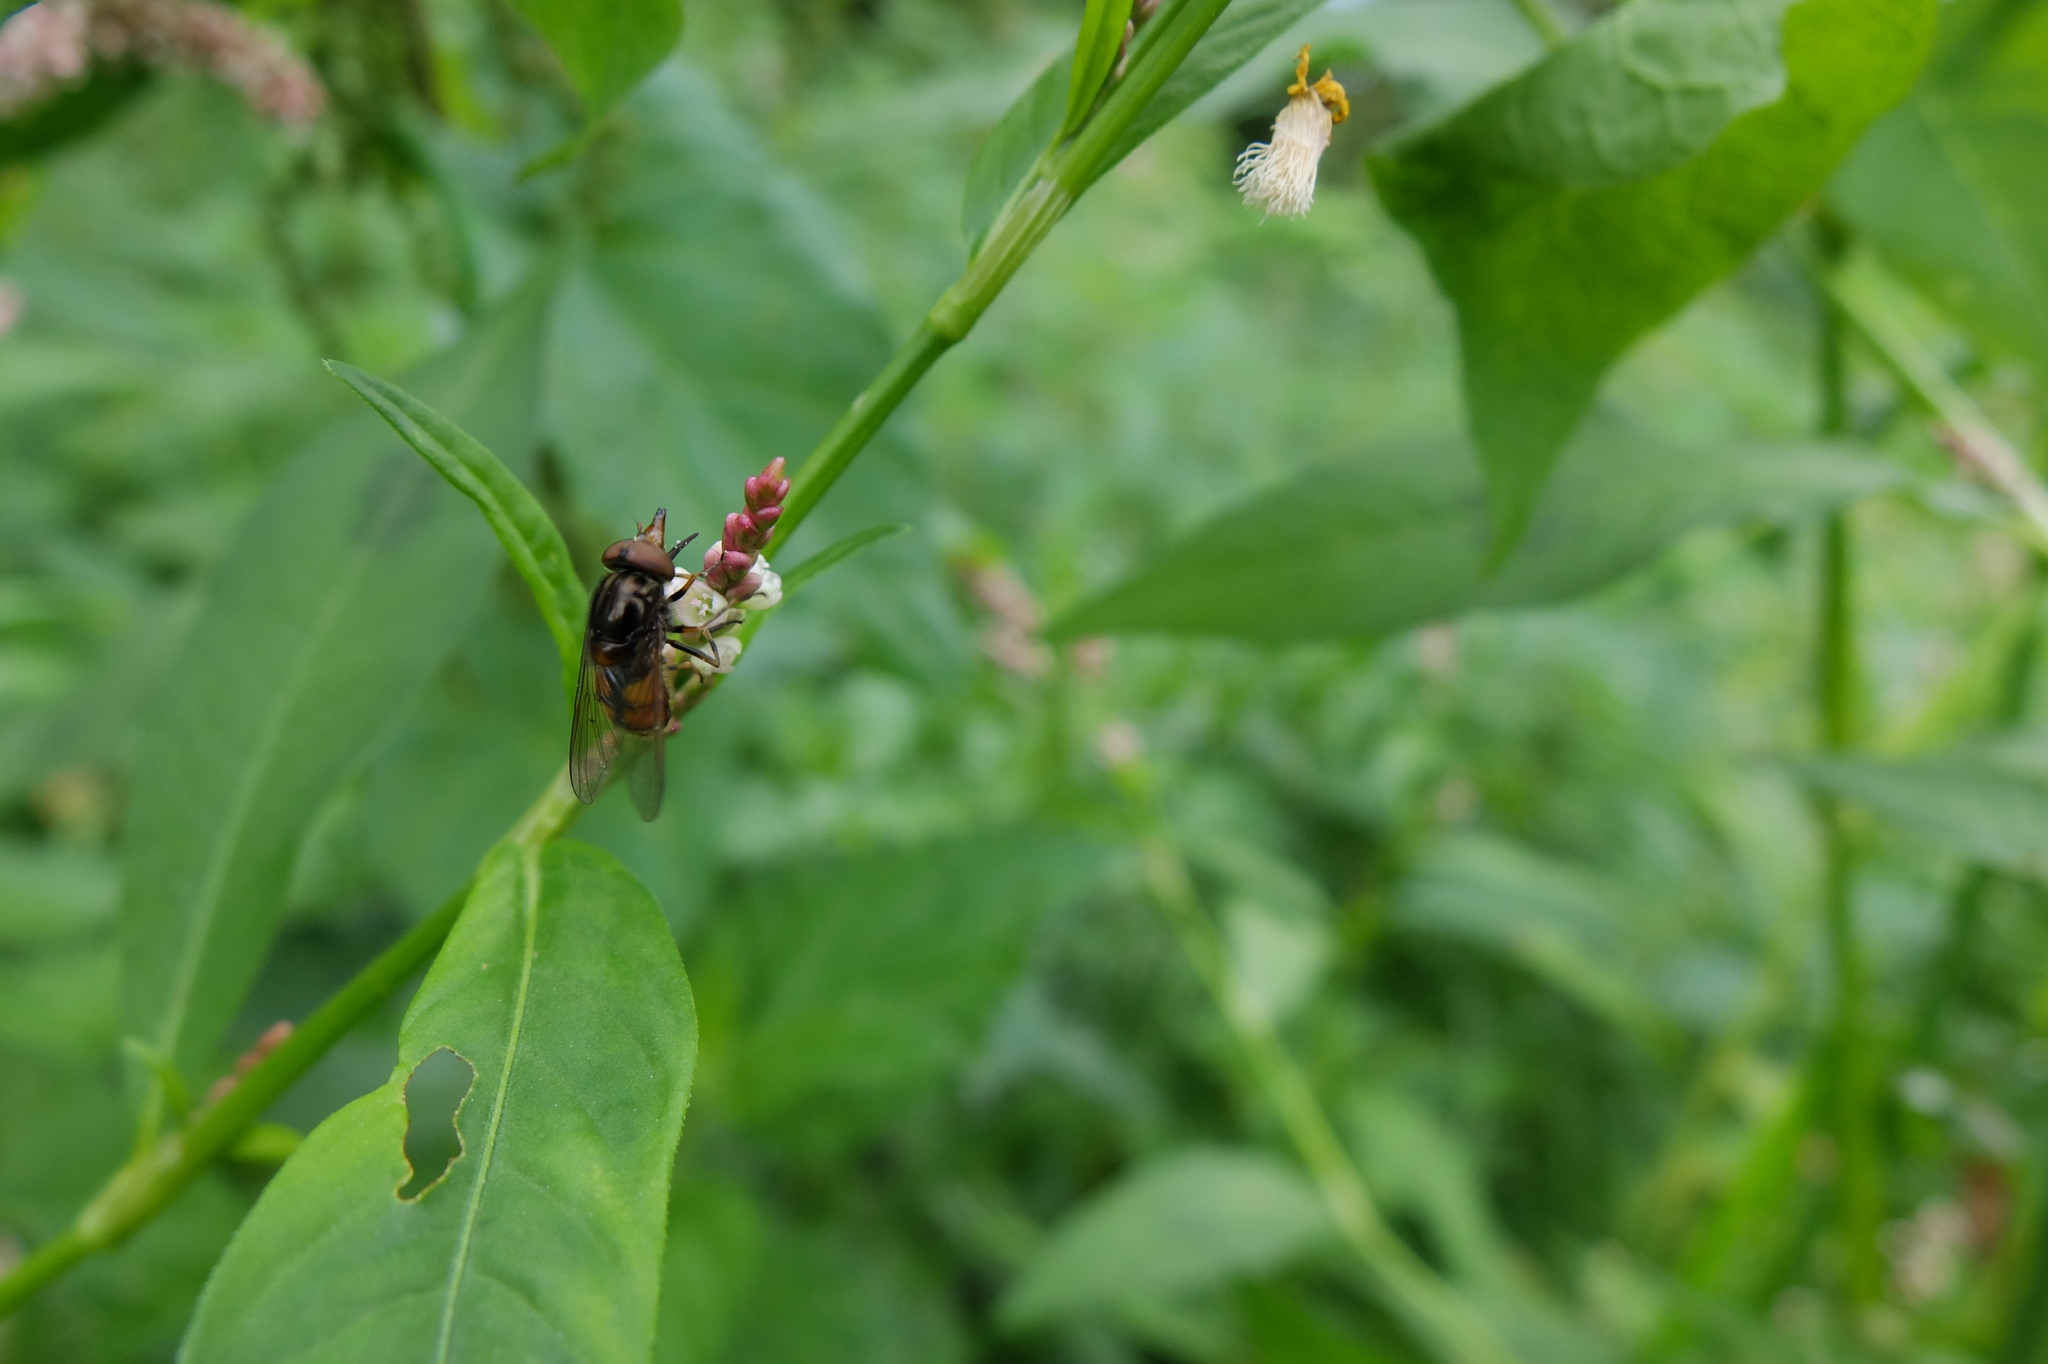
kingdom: Animalia
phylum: Arthropoda
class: Insecta
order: Diptera
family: Syrphidae
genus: Rhingia
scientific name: Rhingia campestris
